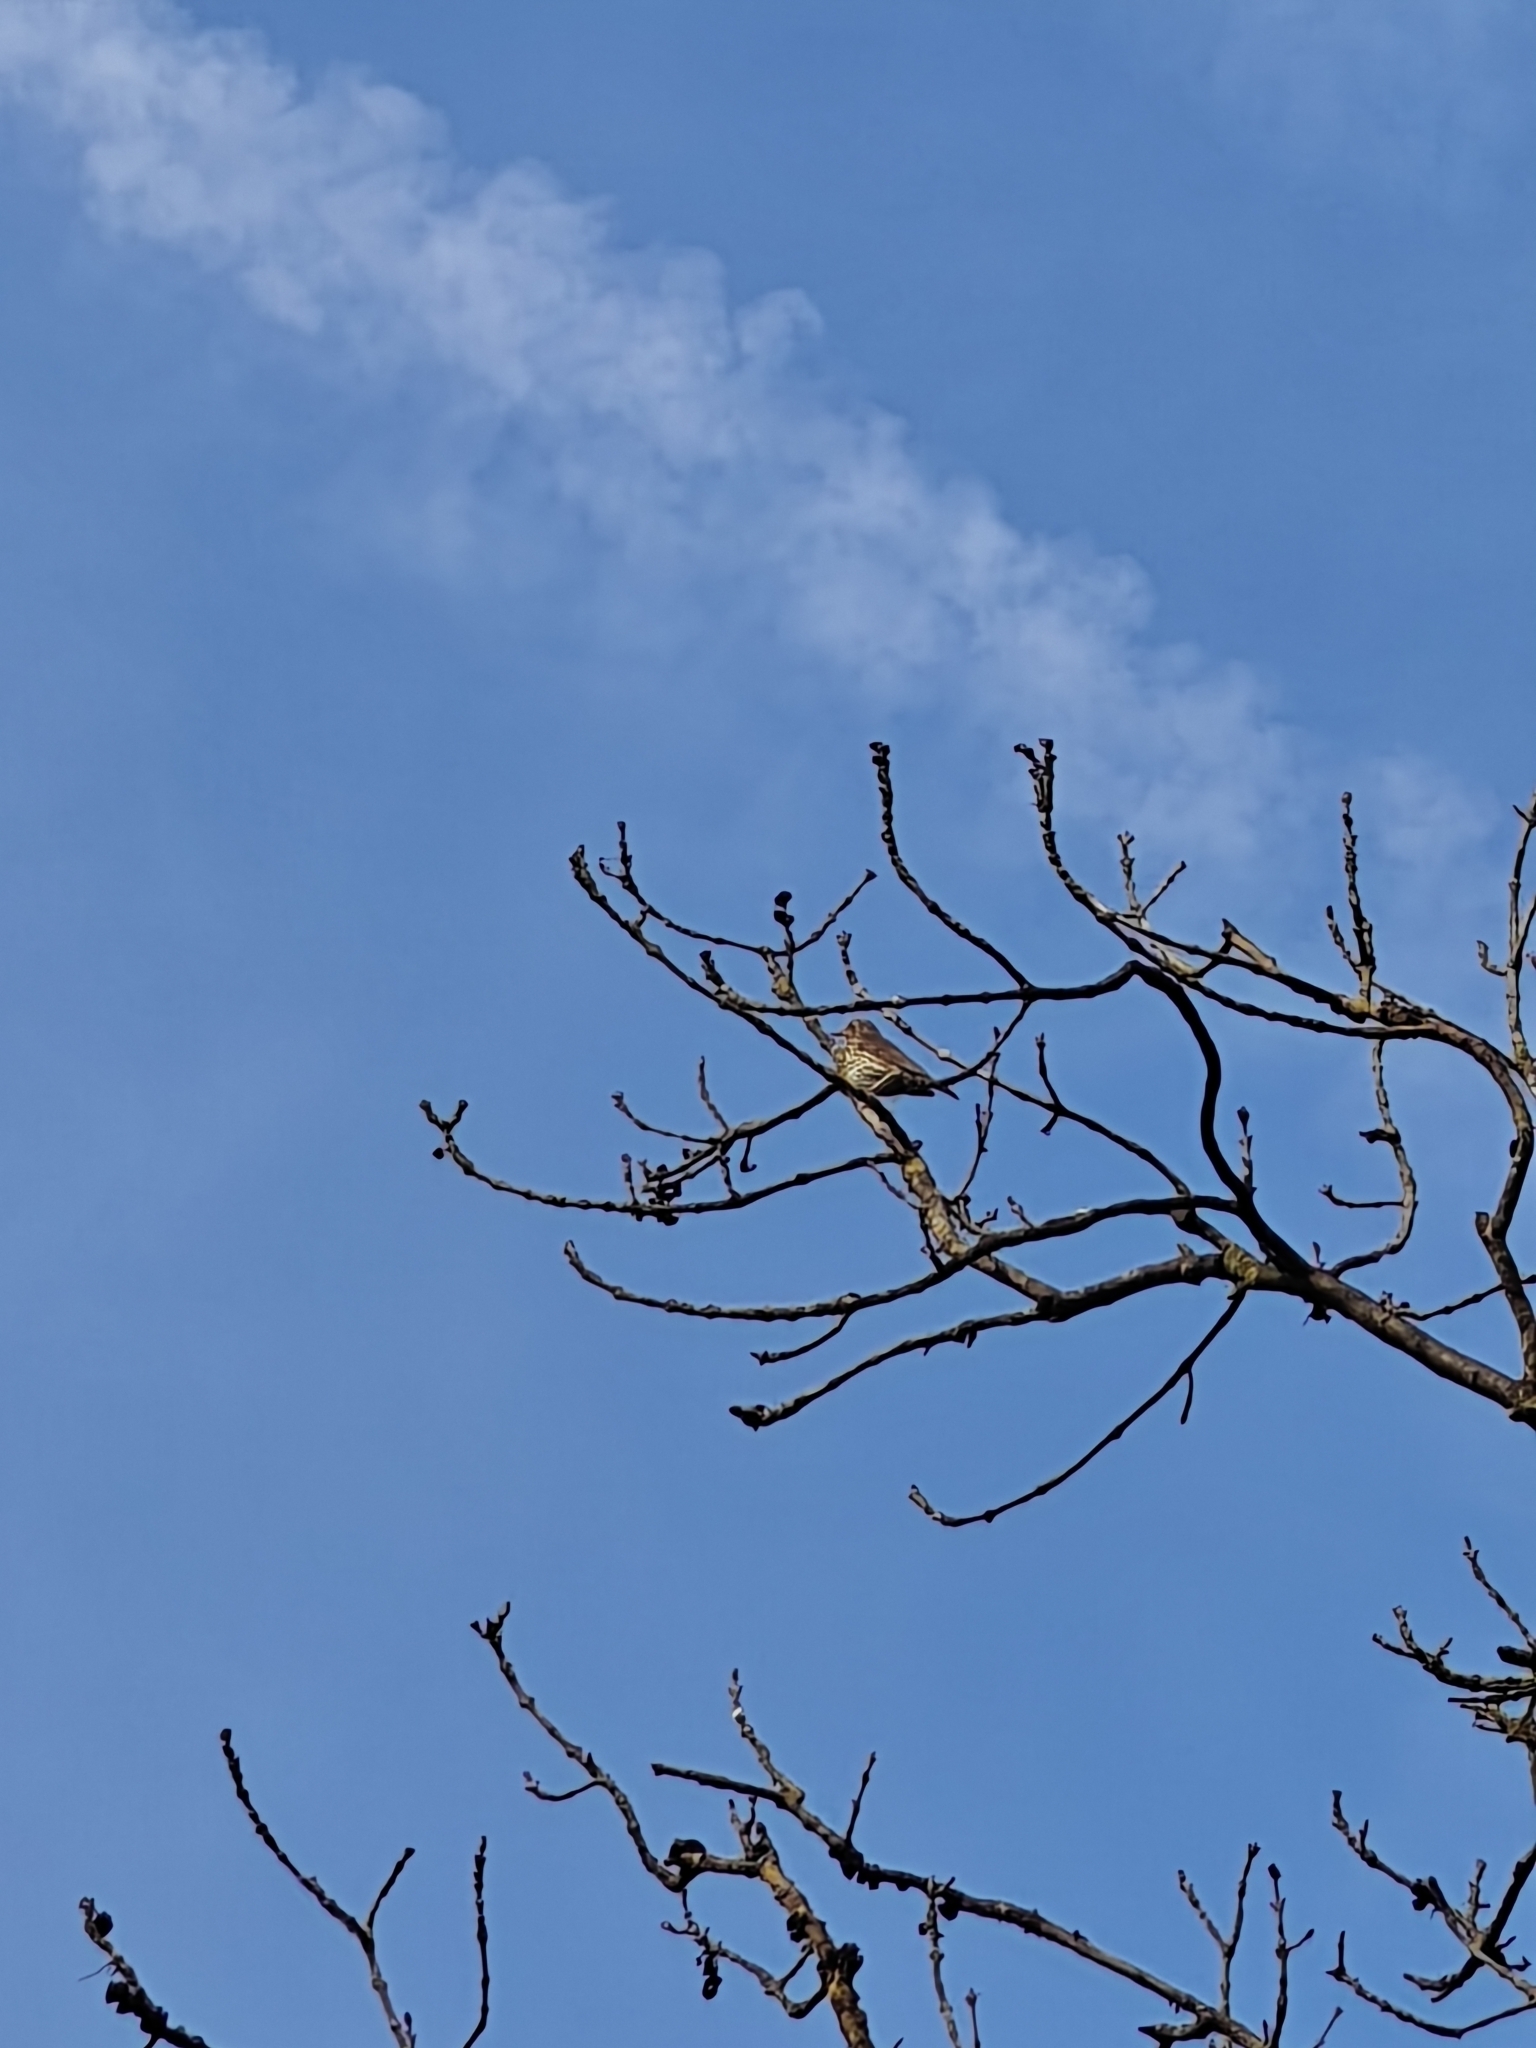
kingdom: Animalia
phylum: Chordata
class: Aves
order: Passeriformes
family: Turdidae
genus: Turdus
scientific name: Turdus philomelos
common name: Song thrush
